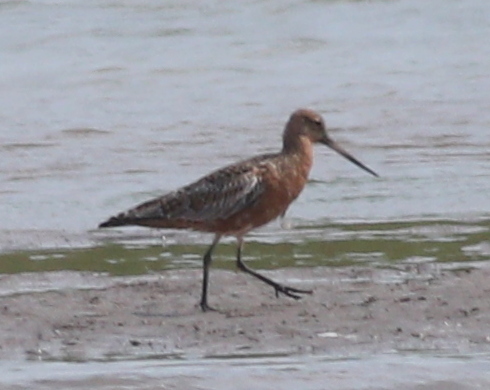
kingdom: Animalia
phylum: Chordata
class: Aves
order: Charadriiformes
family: Scolopacidae
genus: Limosa
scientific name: Limosa lapponica
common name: Bar-tailed godwit
